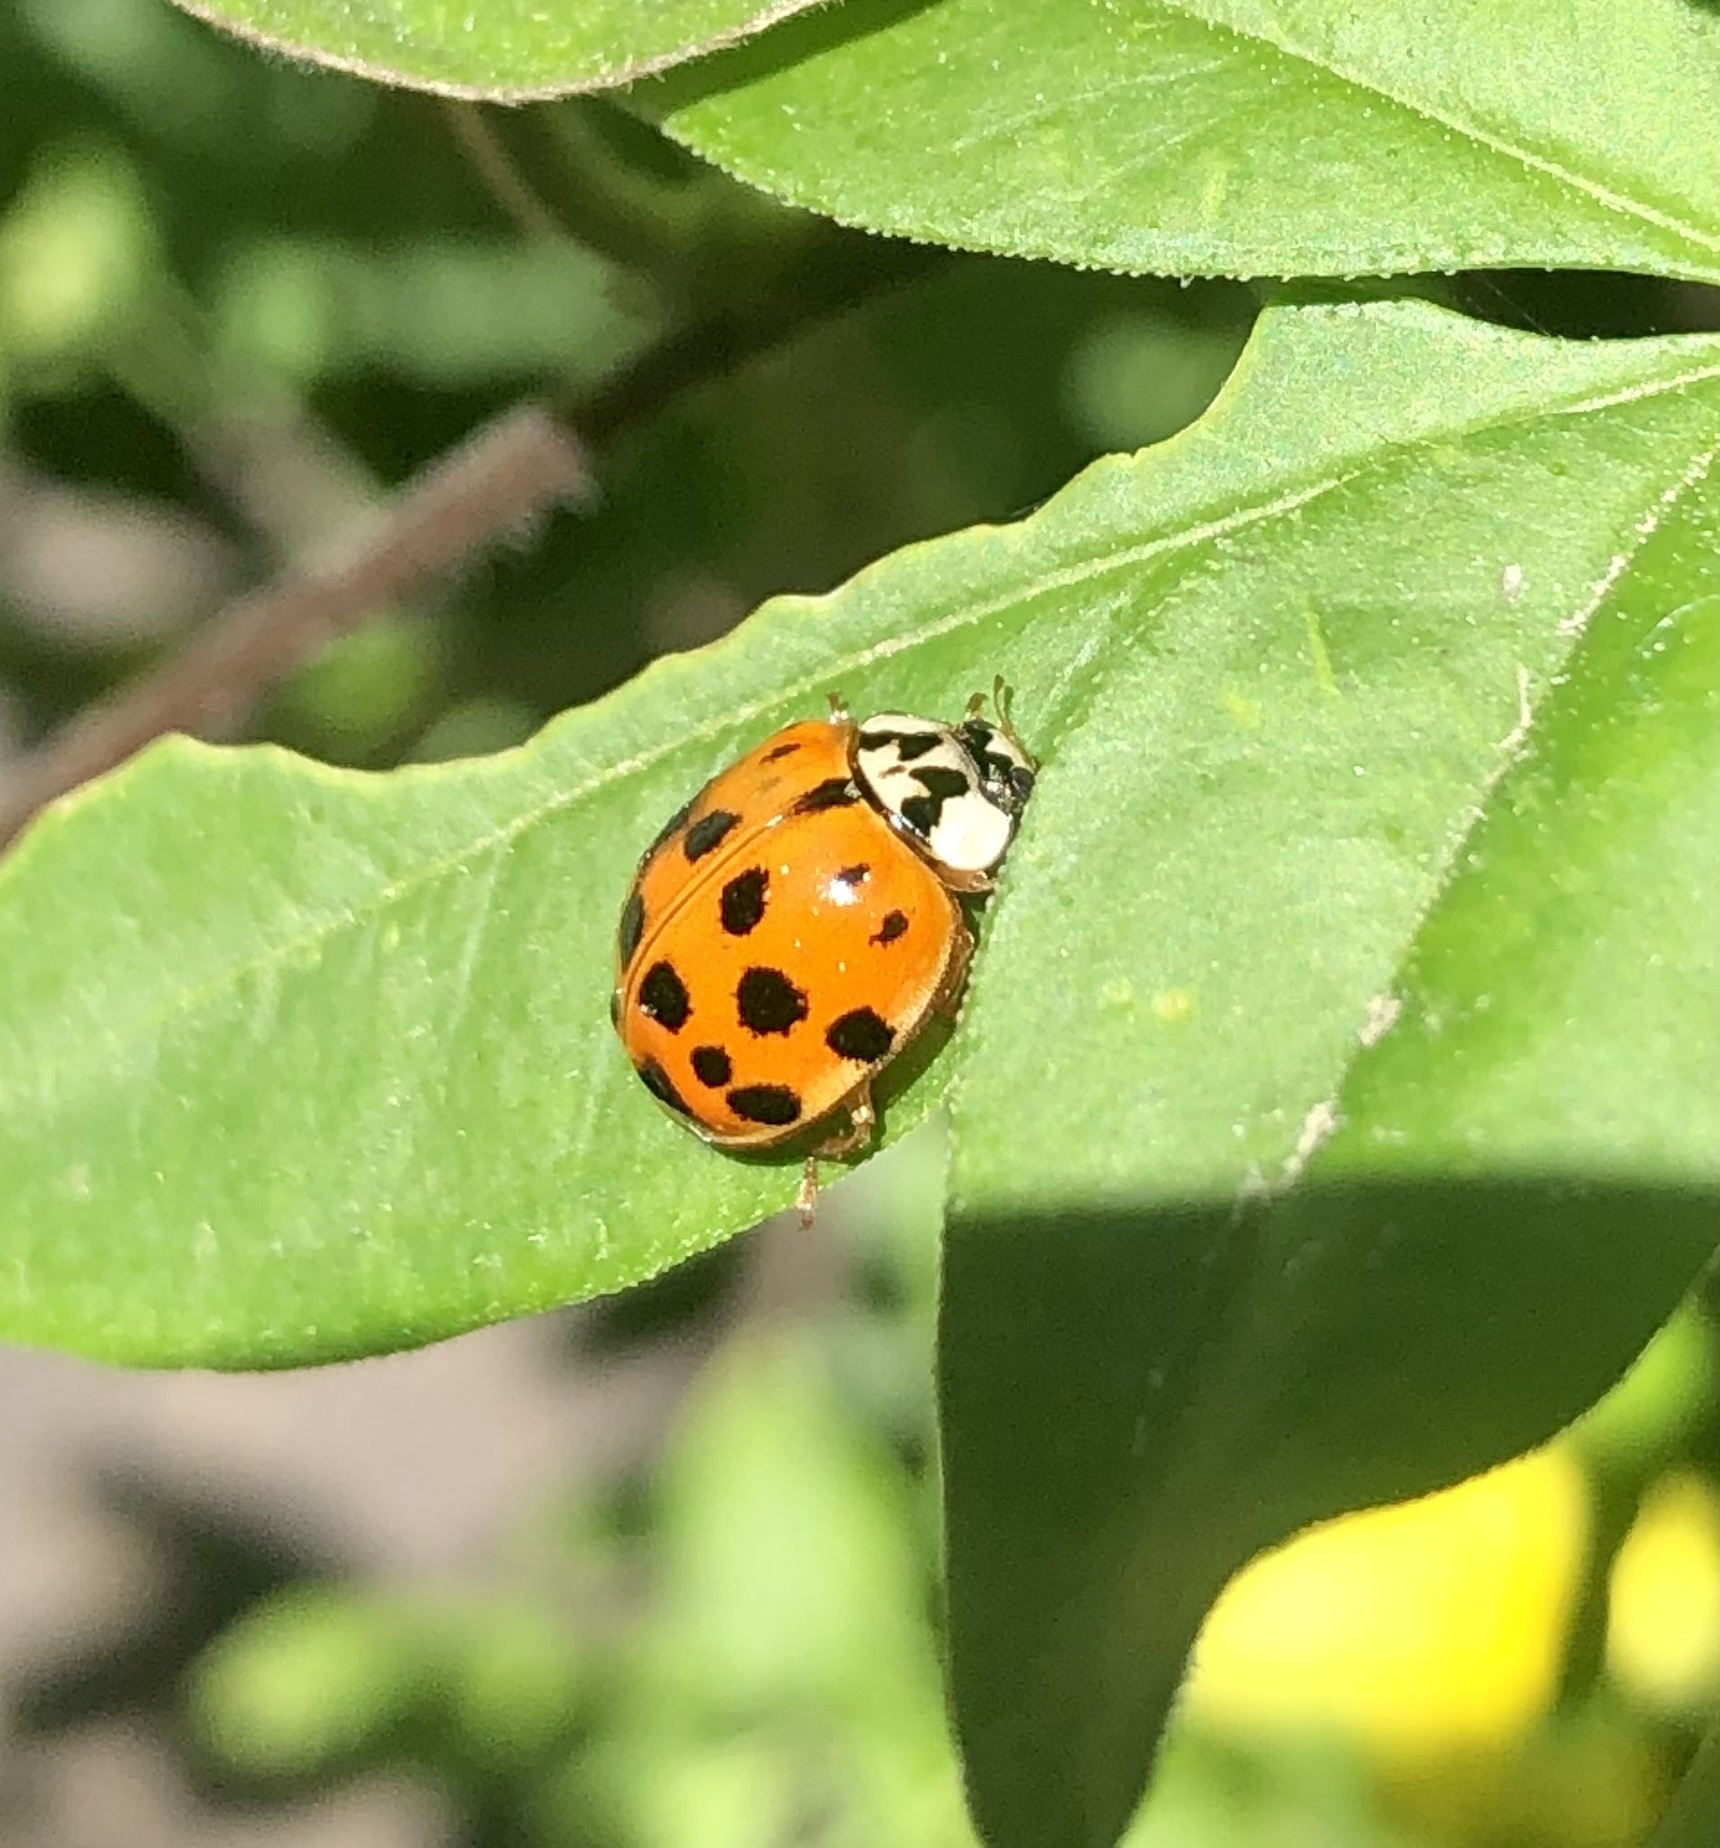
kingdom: Animalia
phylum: Arthropoda
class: Insecta
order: Coleoptera
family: Coccinellidae
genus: Harmonia
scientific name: Harmonia axyridis
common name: Harlequin ladybird
